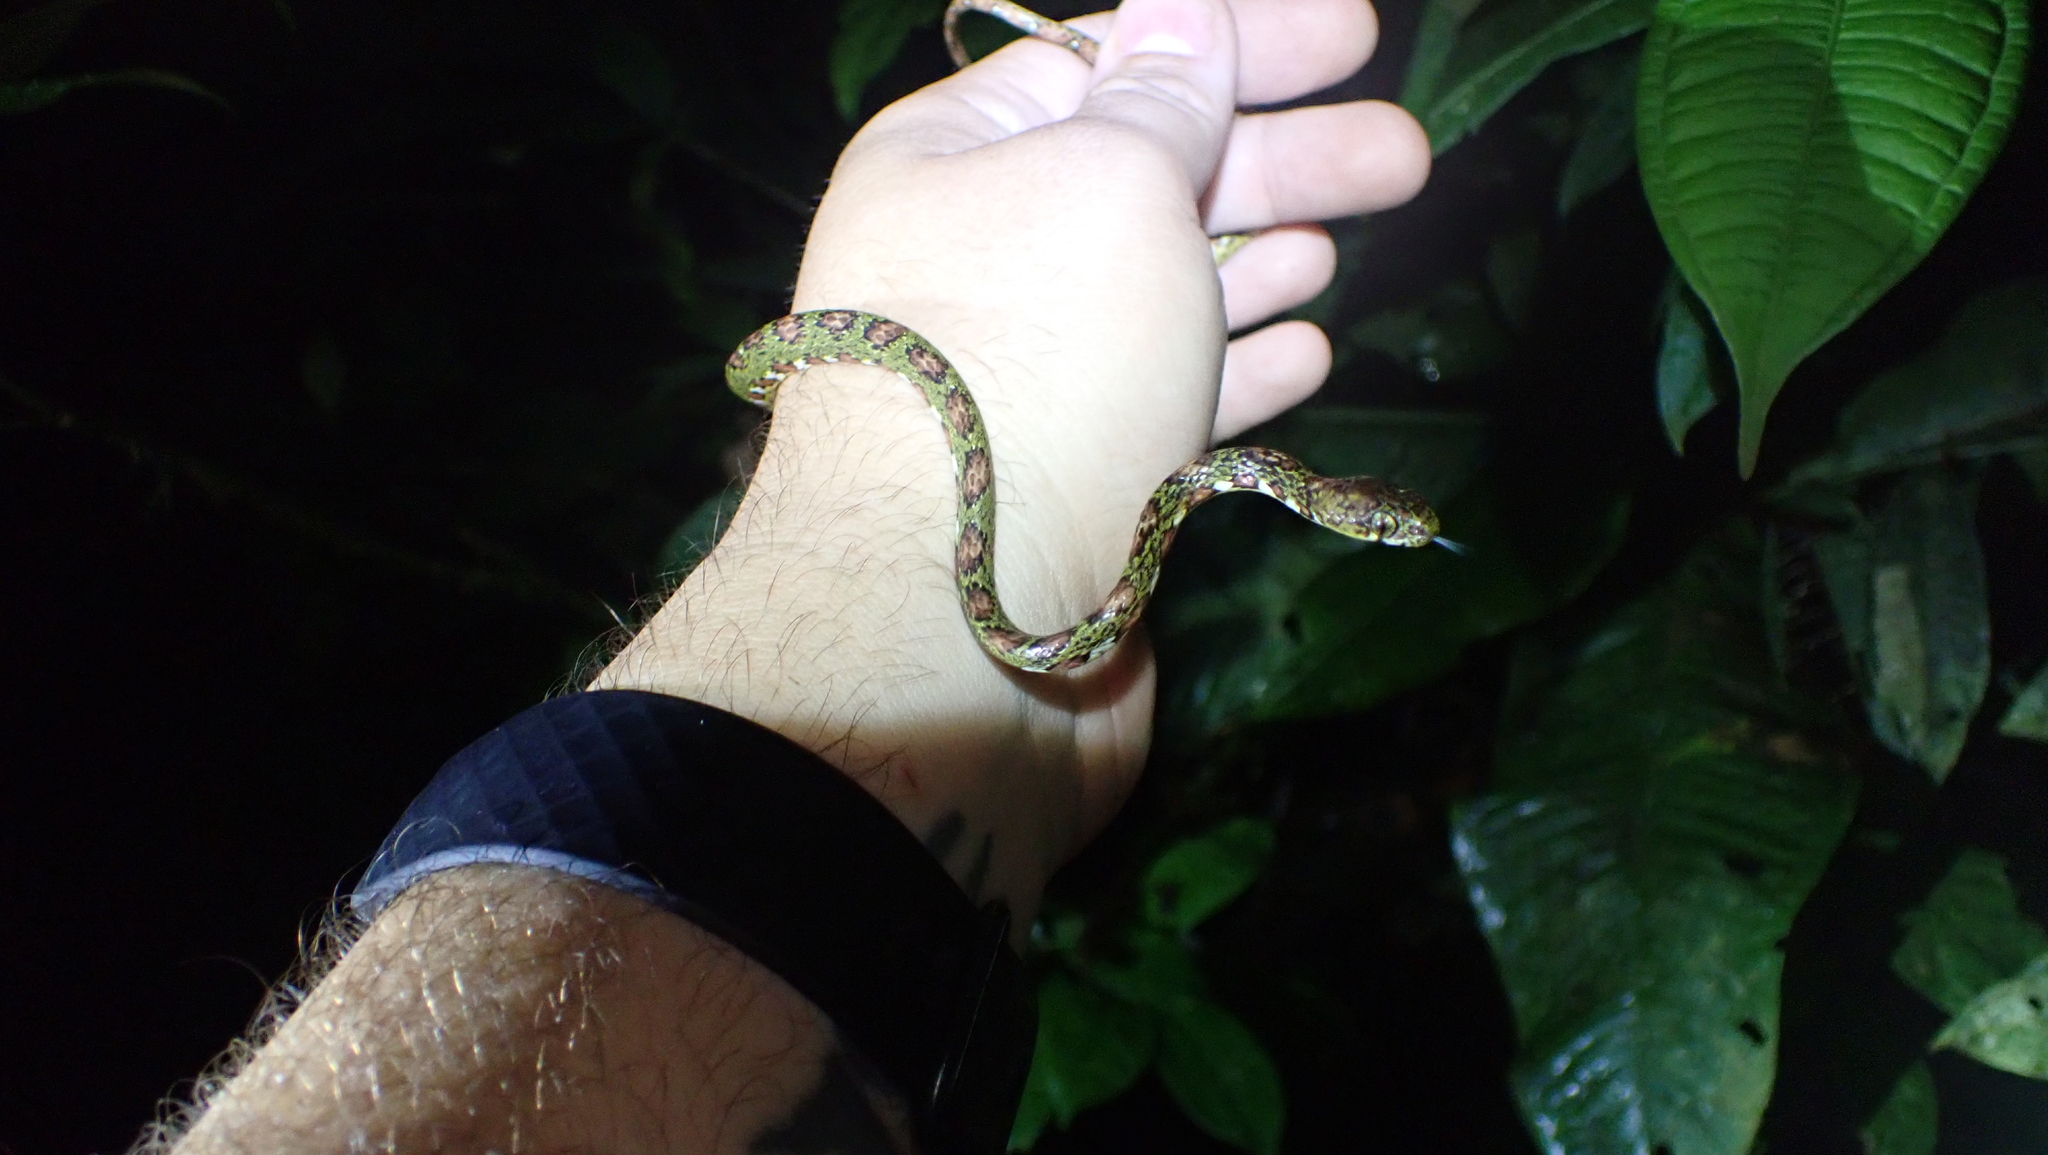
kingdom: Animalia
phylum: Chordata
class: Squamata
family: Colubridae
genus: Sibon
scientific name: Sibon longifrenis
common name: Stejneger's snail sucker
